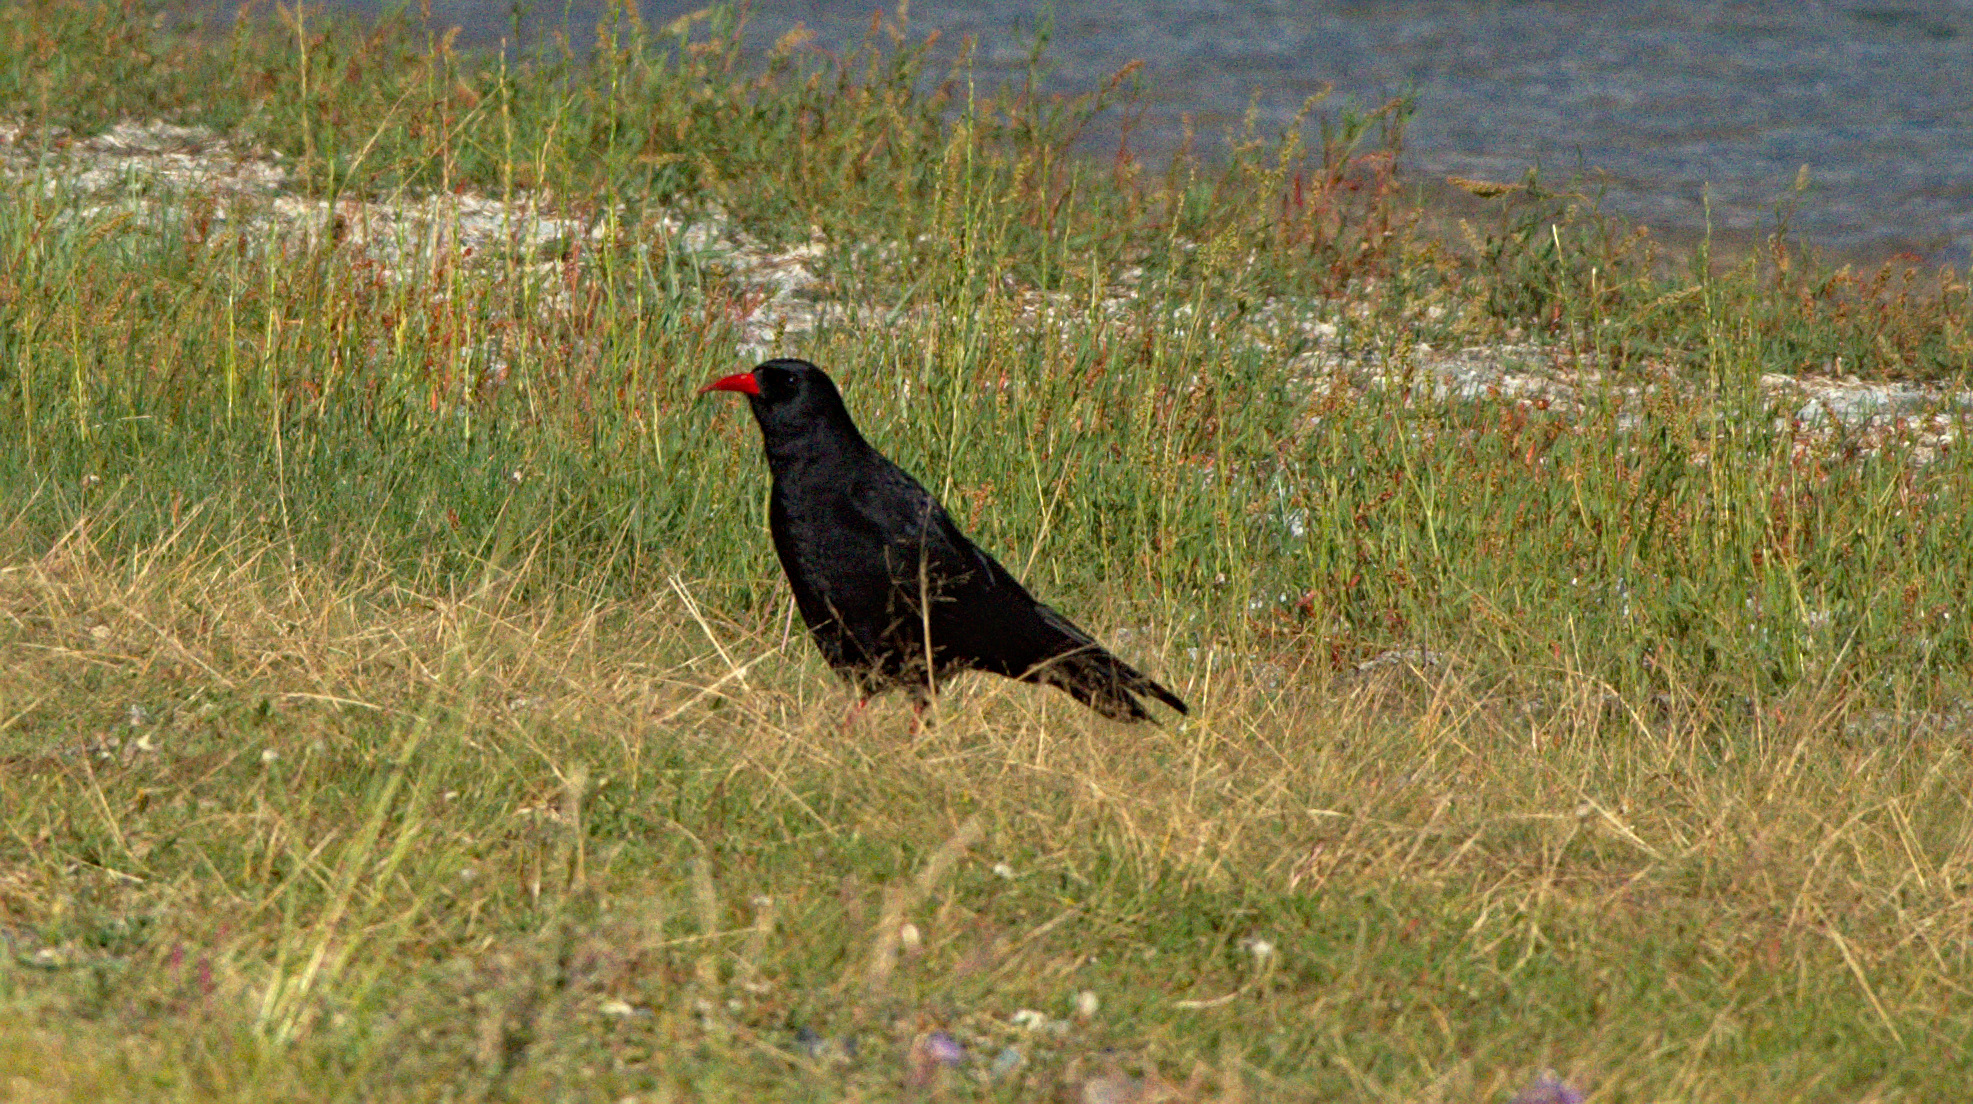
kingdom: Animalia
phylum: Chordata
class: Aves
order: Passeriformes
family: Corvidae
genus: Pyrrhocorax
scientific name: Pyrrhocorax pyrrhocorax
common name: Red-billed chough
